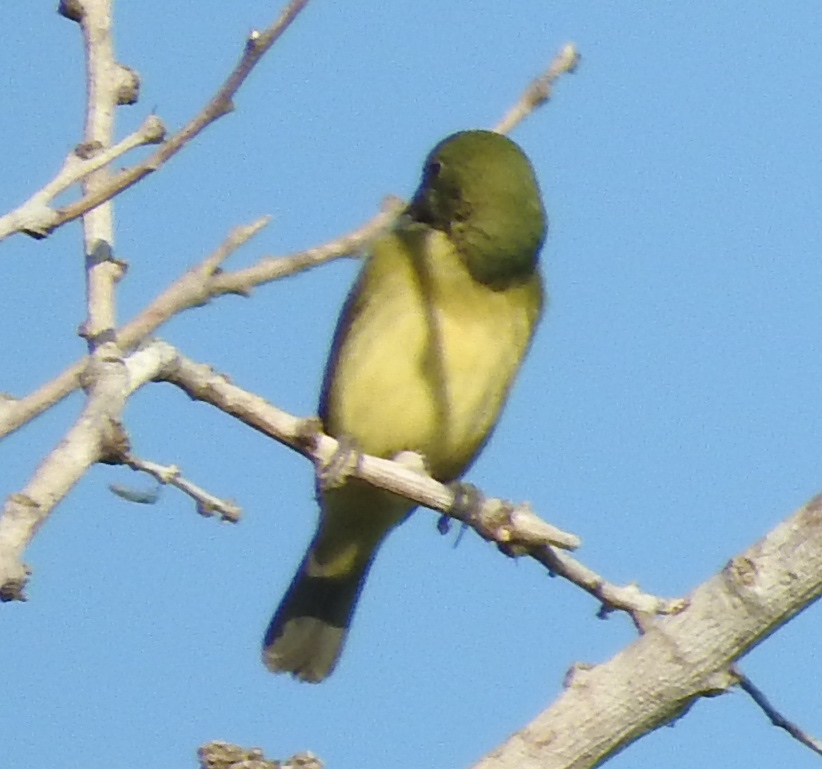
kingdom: Animalia
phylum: Chordata
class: Aves
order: Passeriformes
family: Cardinalidae
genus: Passerina
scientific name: Passerina ciris
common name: Painted bunting
